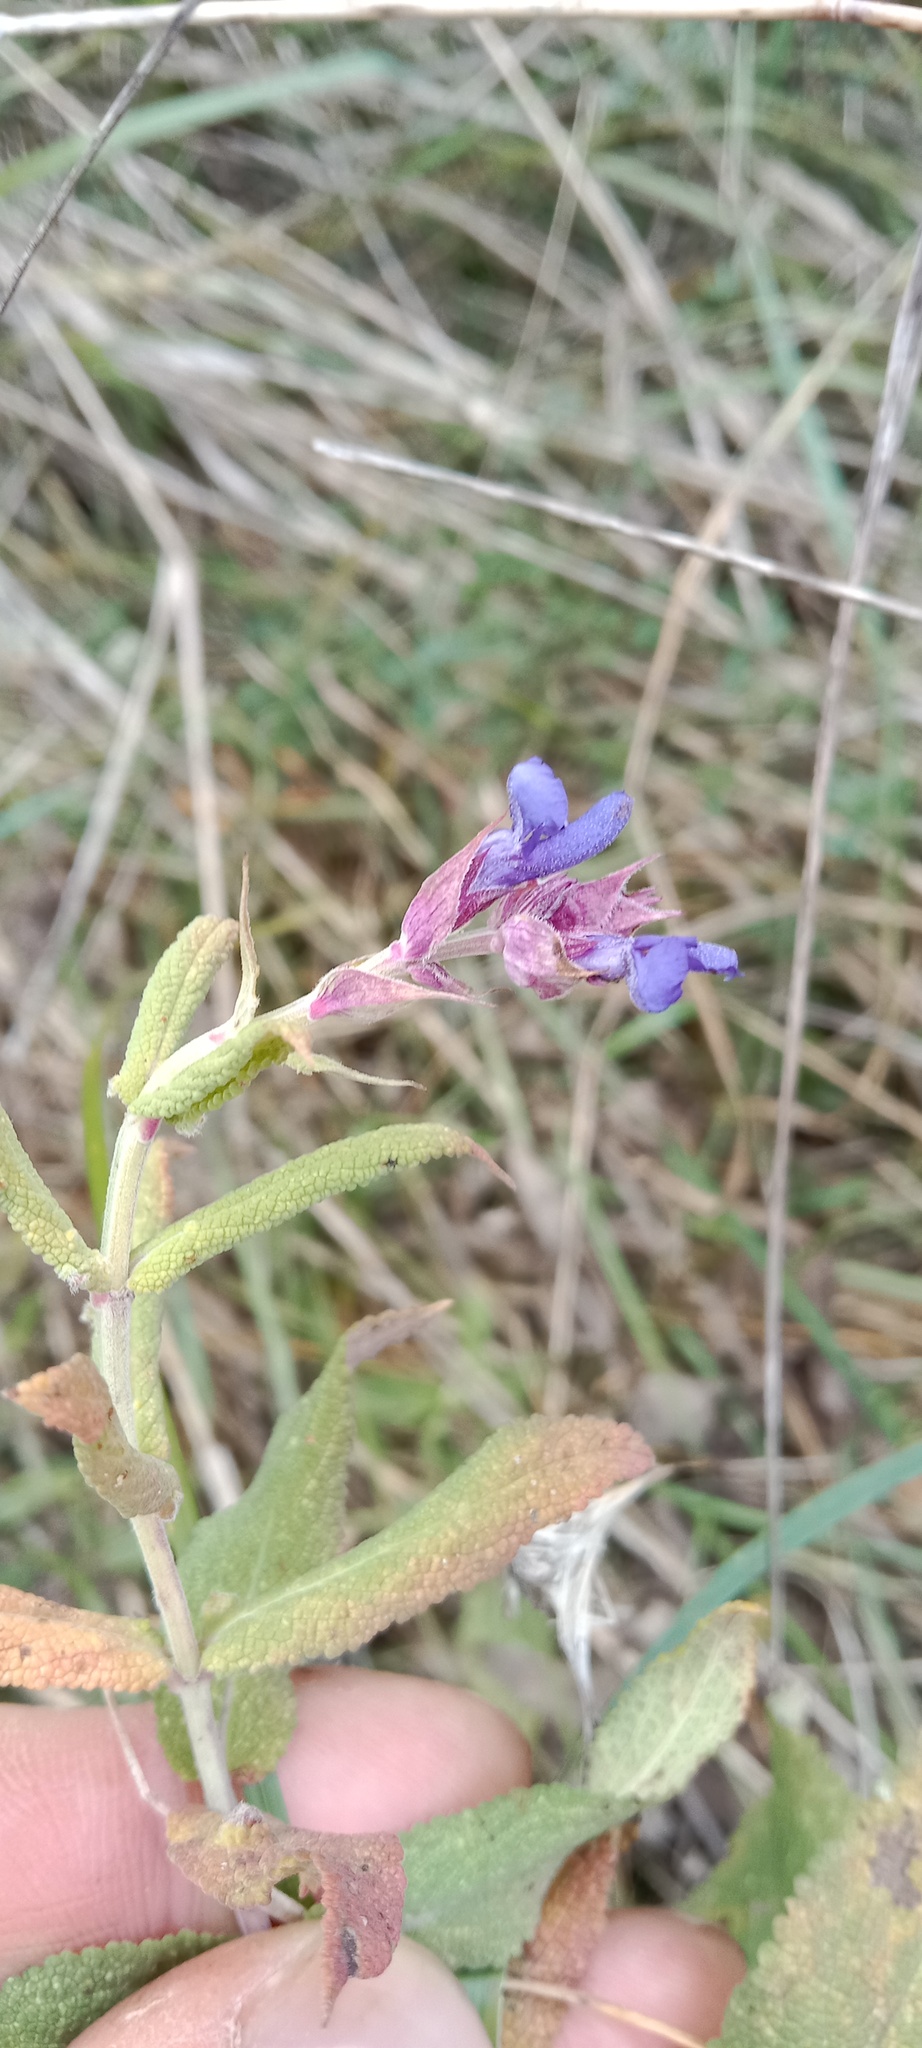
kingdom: Plantae
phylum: Tracheophyta
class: Magnoliopsida
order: Lamiales
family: Lamiaceae
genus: Salvia
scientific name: Salvia nemorosa
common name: Balkan clary
